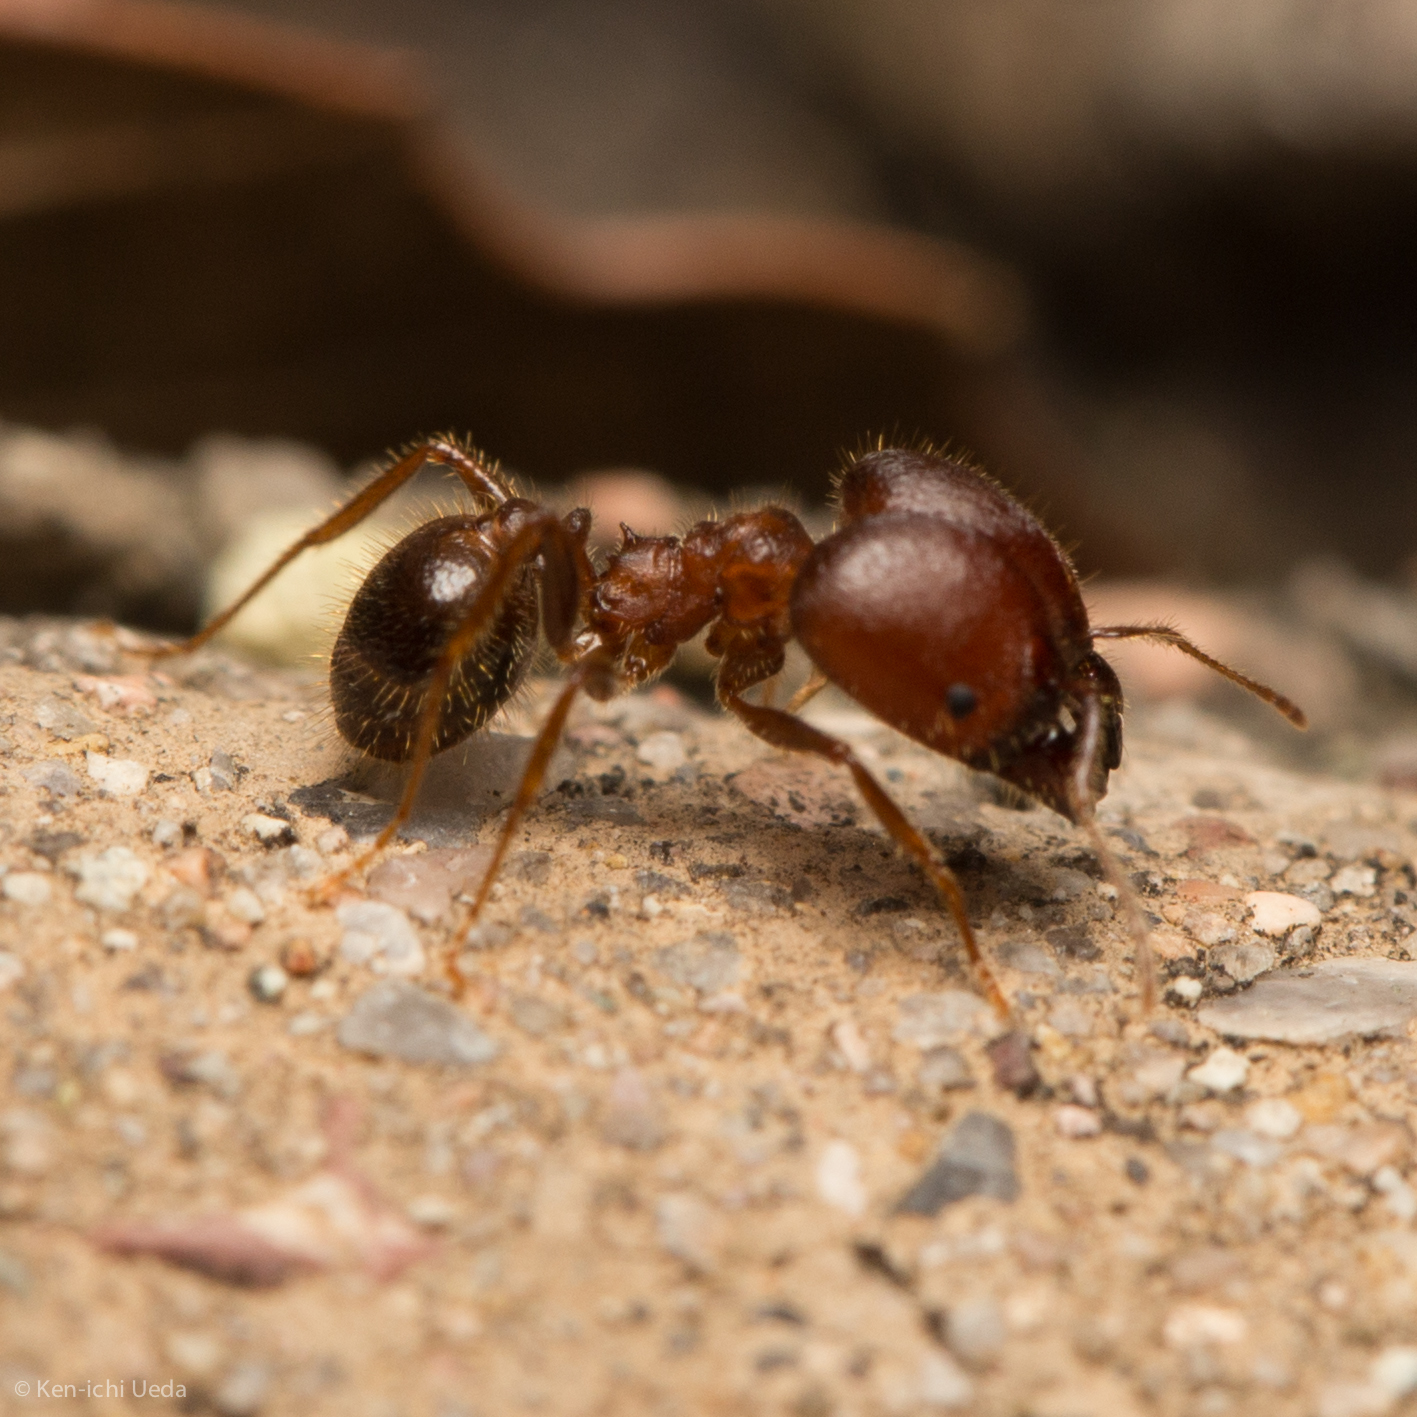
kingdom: Animalia
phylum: Arthropoda
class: Insecta
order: Hymenoptera
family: Formicidae
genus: Pheidole
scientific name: Pheidole obtusospinosa
